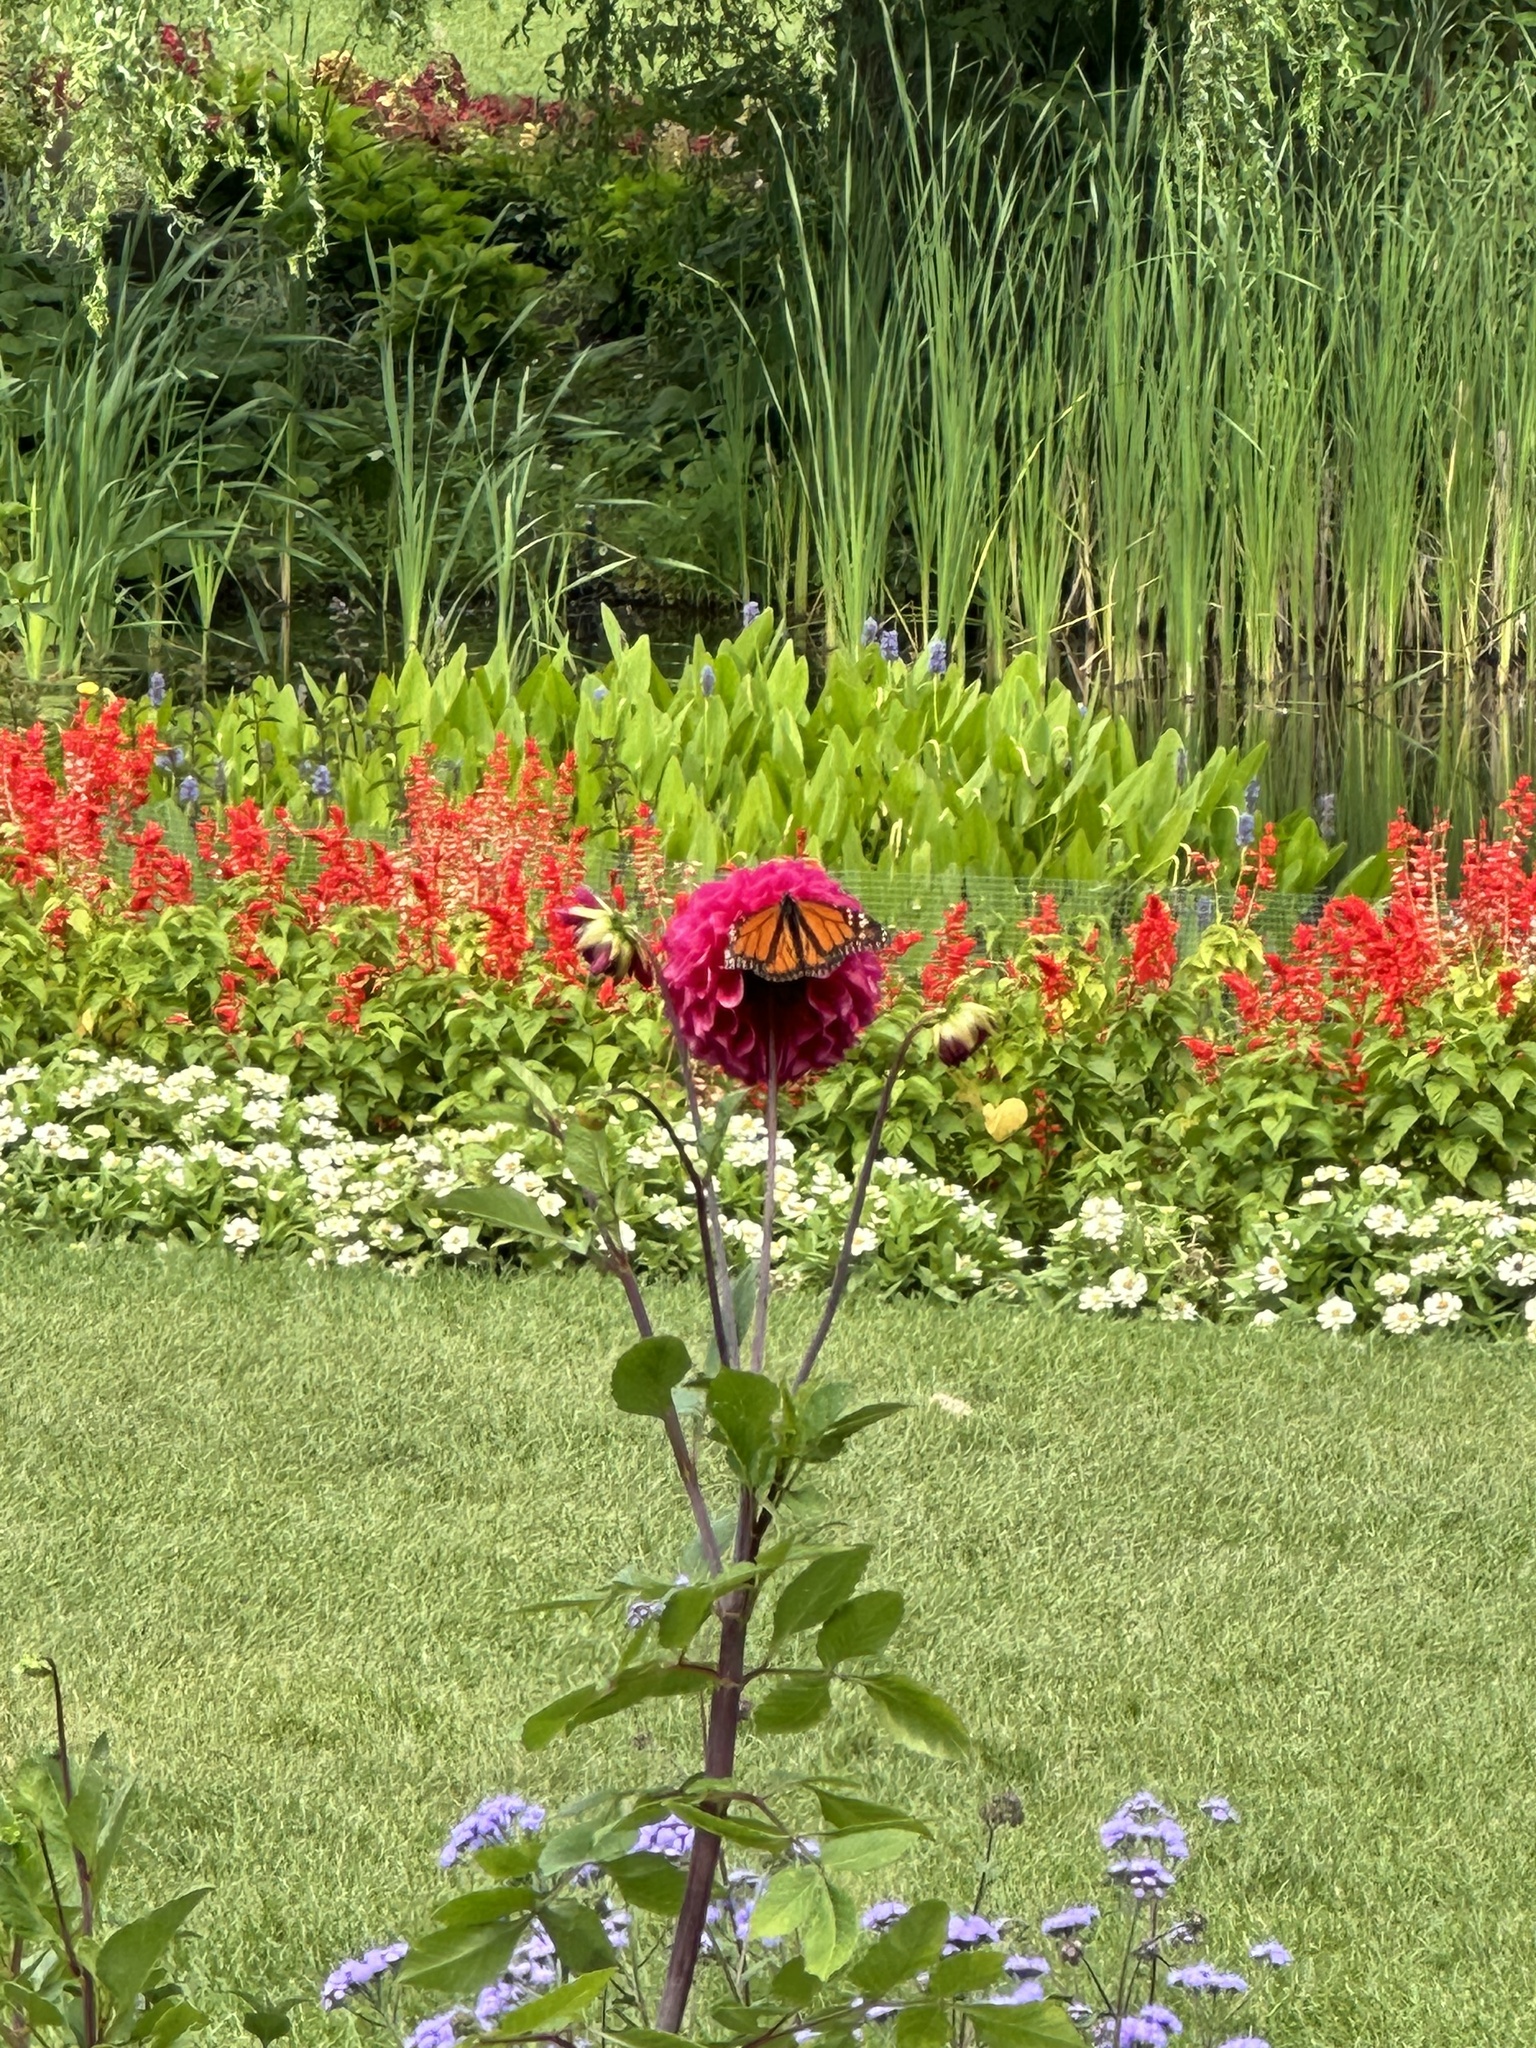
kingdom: Animalia
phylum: Arthropoda
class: Insecta
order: Lepidoptera
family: Nymphalidae
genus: Danaus
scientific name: Danaus plexippus
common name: Monarch
